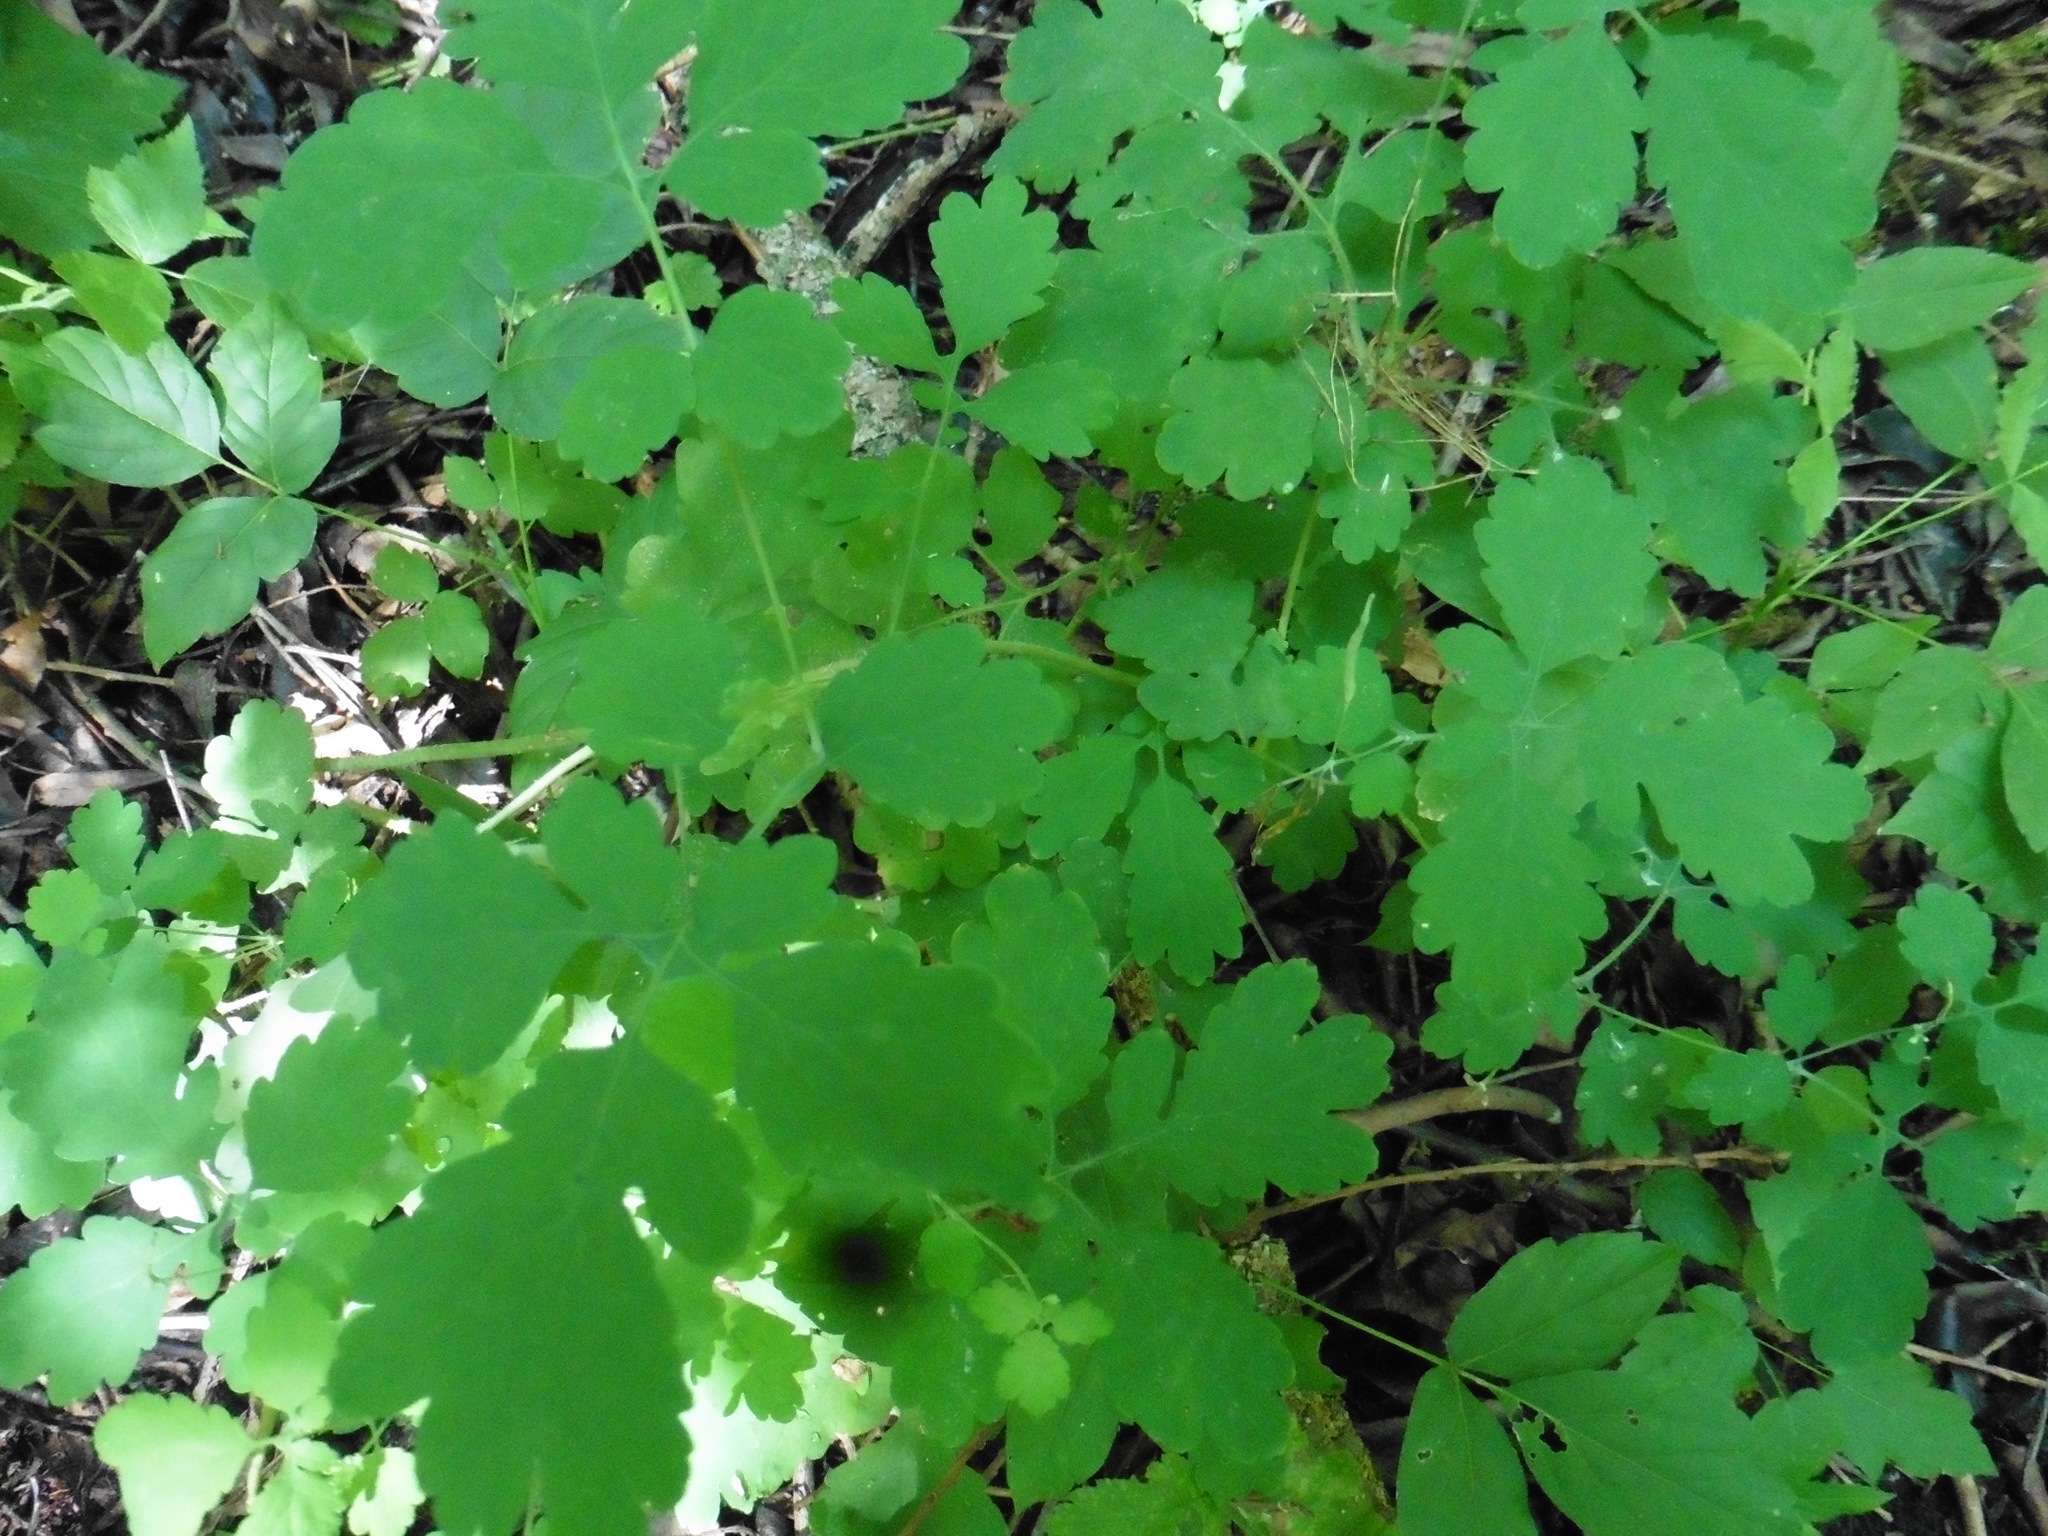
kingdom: Plantae
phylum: Tracheophyta
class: Magnoliopsida
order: Ranunculales
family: Papaveraceae
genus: Chelidonium
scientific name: Chelidonium majus
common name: Greater celandine
